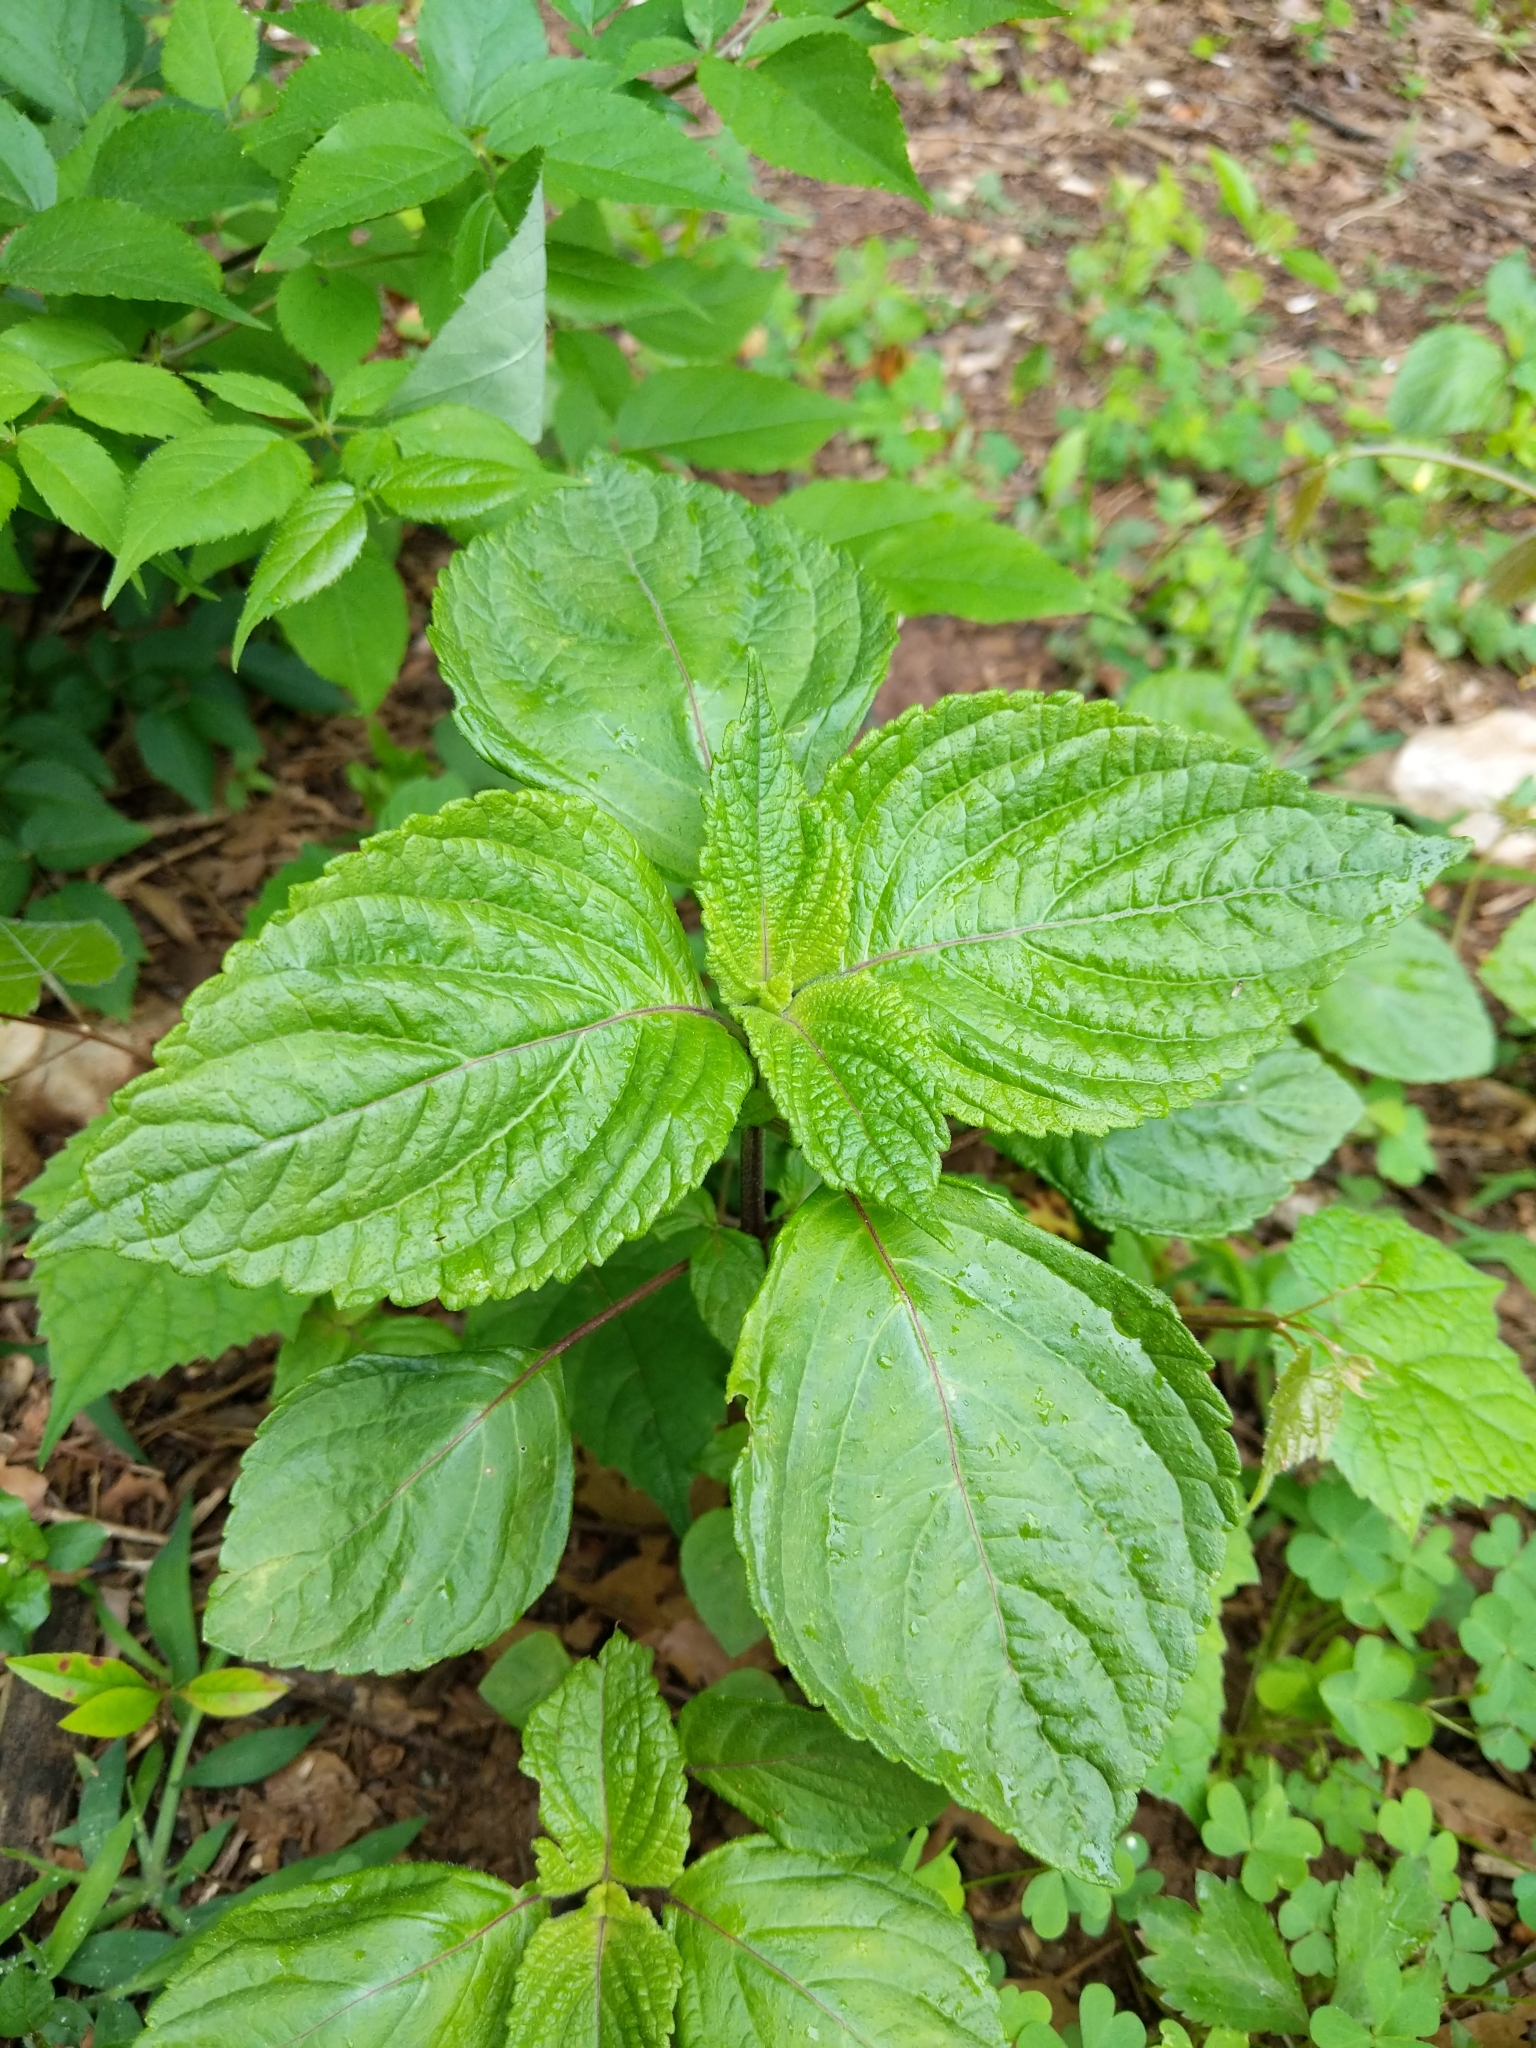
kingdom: Plantae
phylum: Tracheophyta
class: Magnoliopsida
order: Lamiales
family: Lamiaceae
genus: Perilla
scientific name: Perilla frutescens
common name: Perilla
